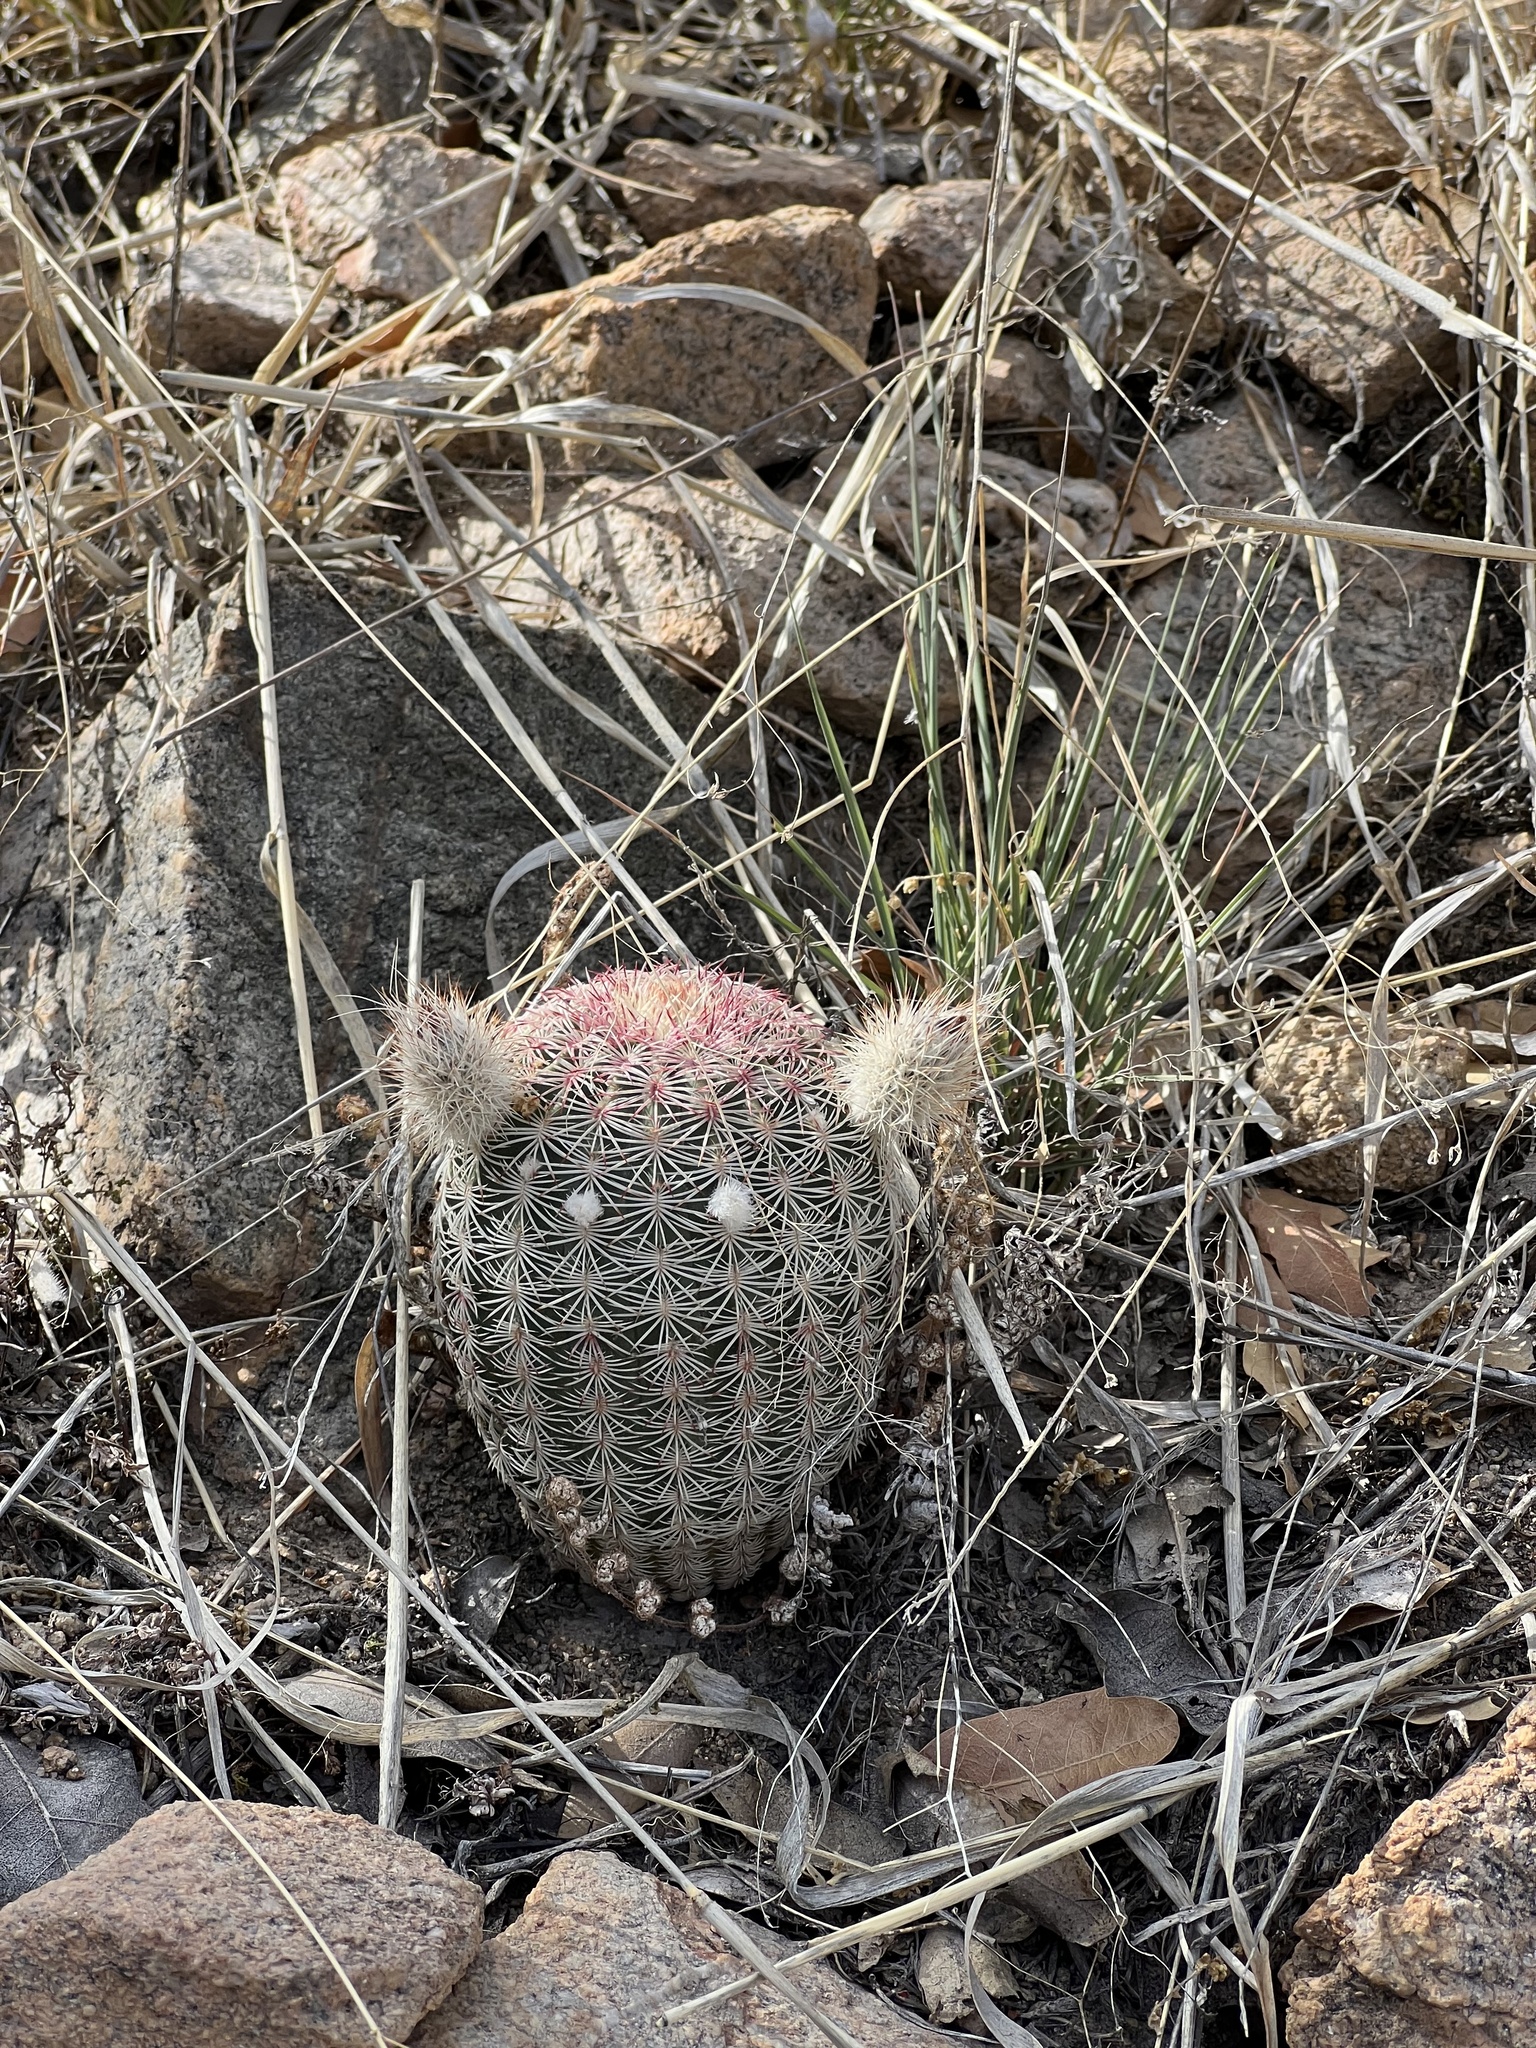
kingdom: Plantae
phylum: Tracheophyta
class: Magnoliopsida
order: Caryophyllales
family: Cactaceae
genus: Echinocereus
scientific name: Echinocereus rigidissimus
